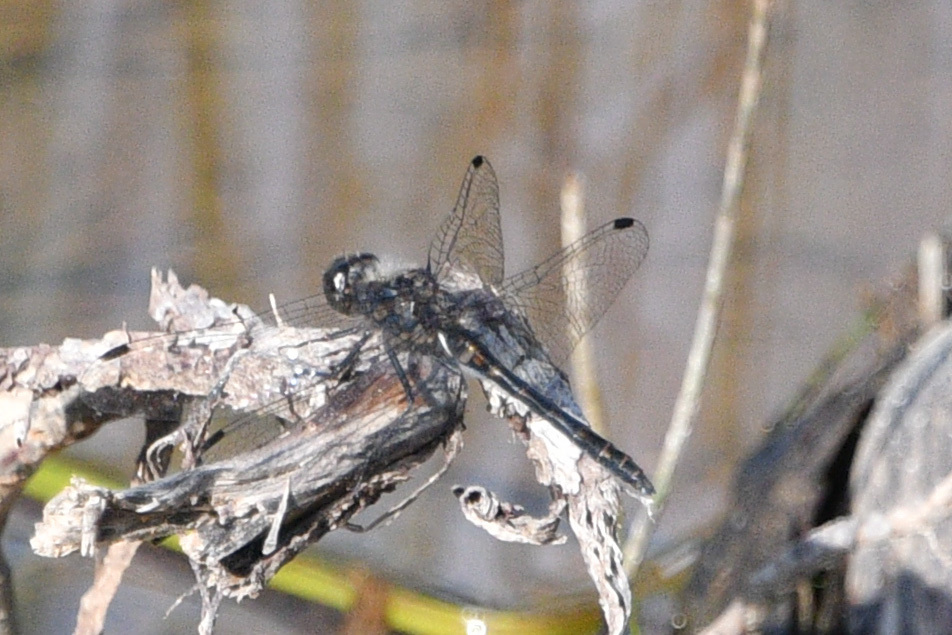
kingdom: Animalia
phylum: Arthropoda
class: Insecta
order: Odonata
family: Libellulidae
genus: Sympetrum
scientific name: Sympetrum danae
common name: Black darter
